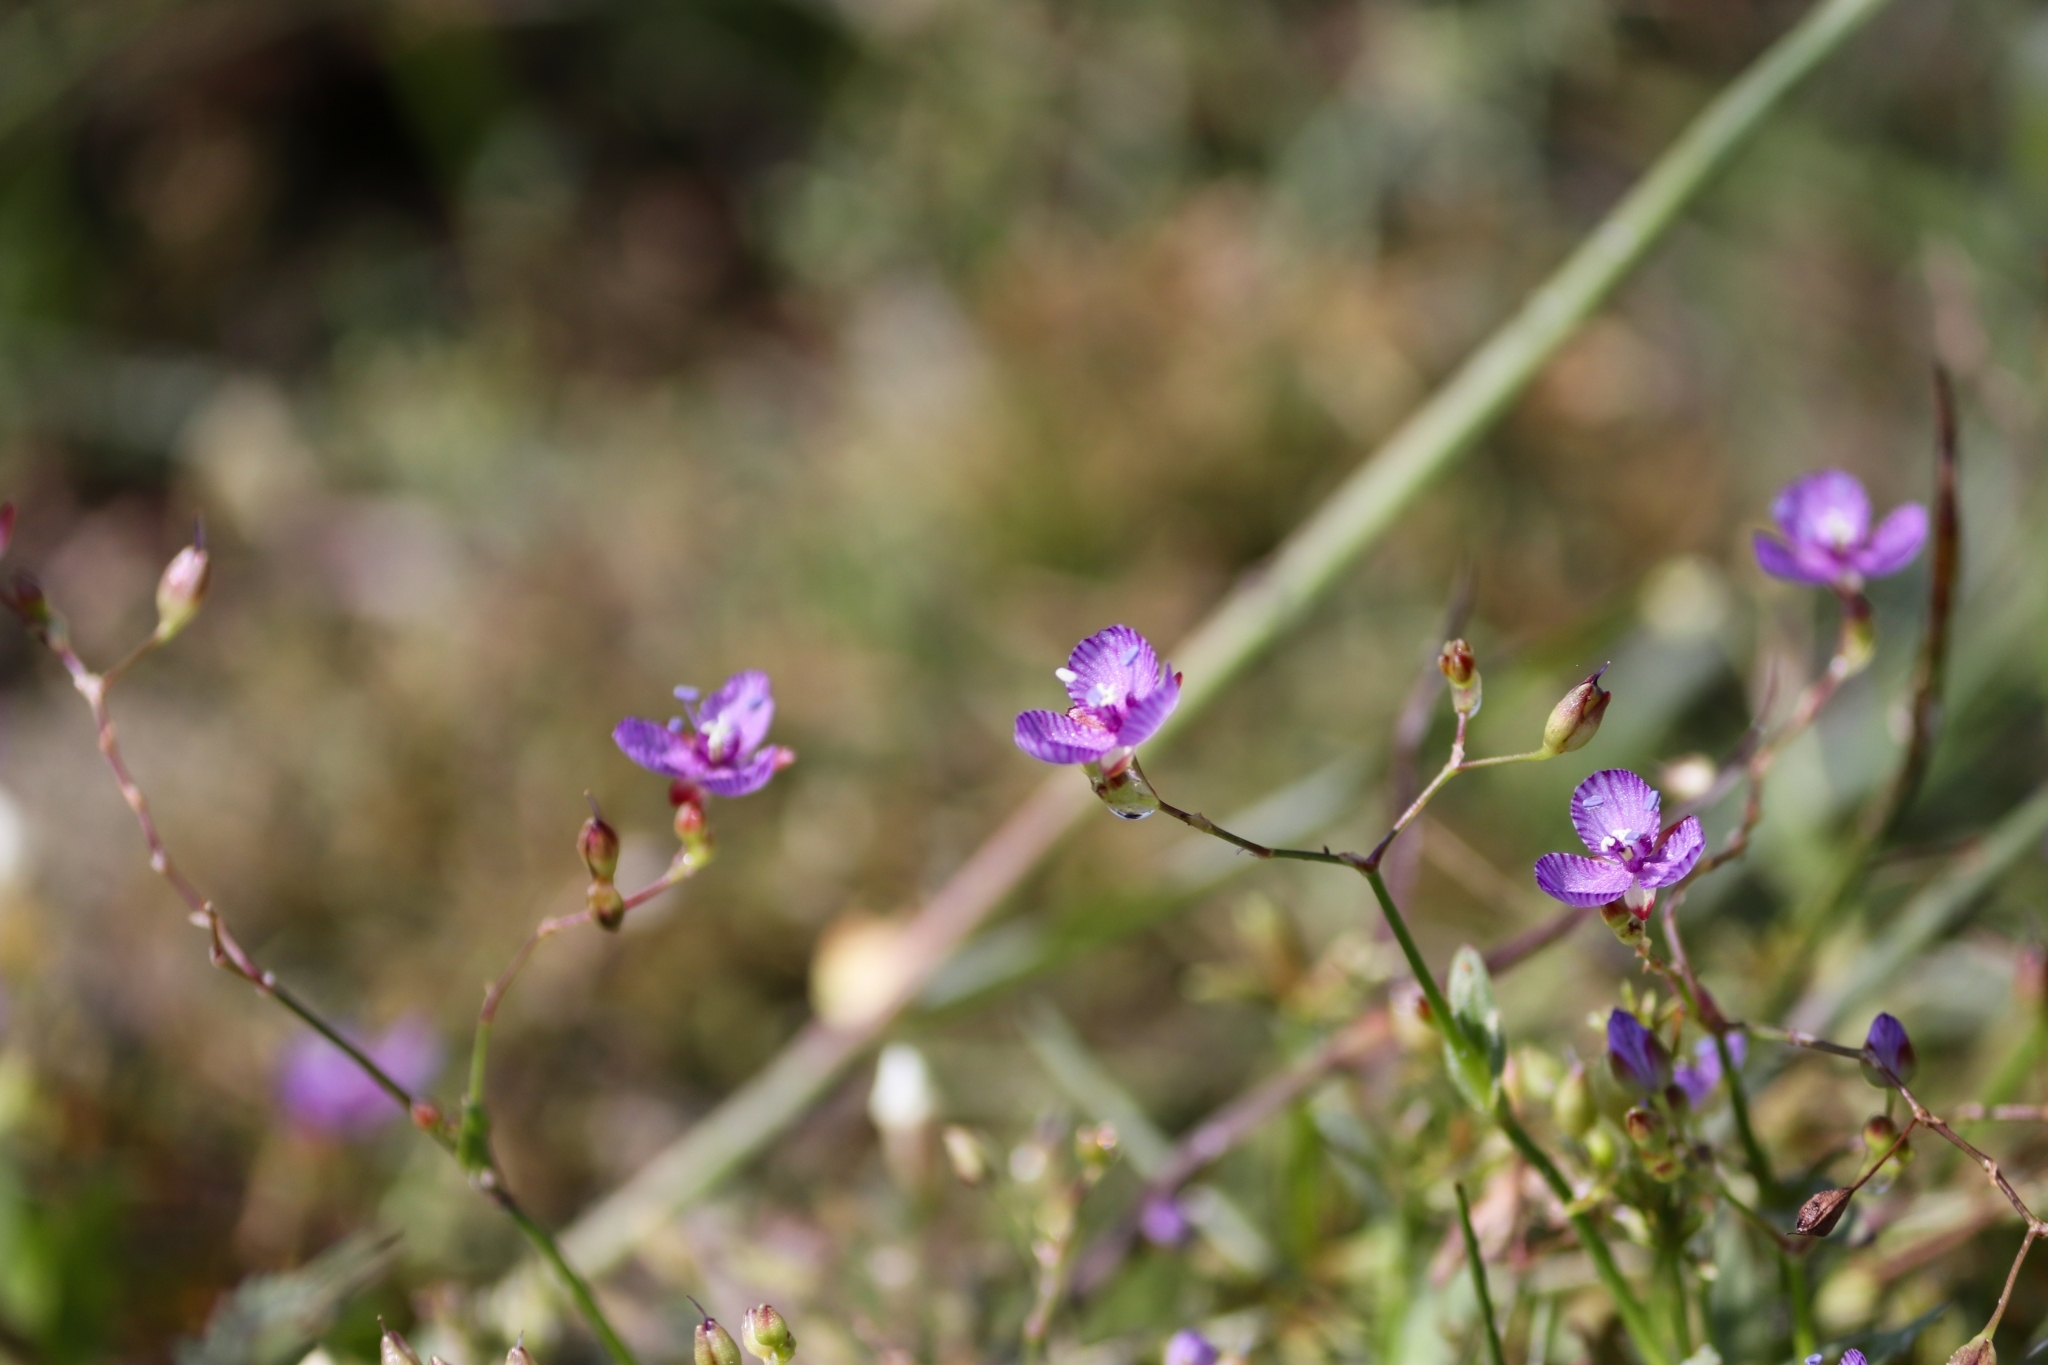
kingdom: Plantae
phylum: Tracheophyta
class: Liliopsida
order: Commelinales
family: Commelinaceae
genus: Murdannia
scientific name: Murdannia striatipetala
